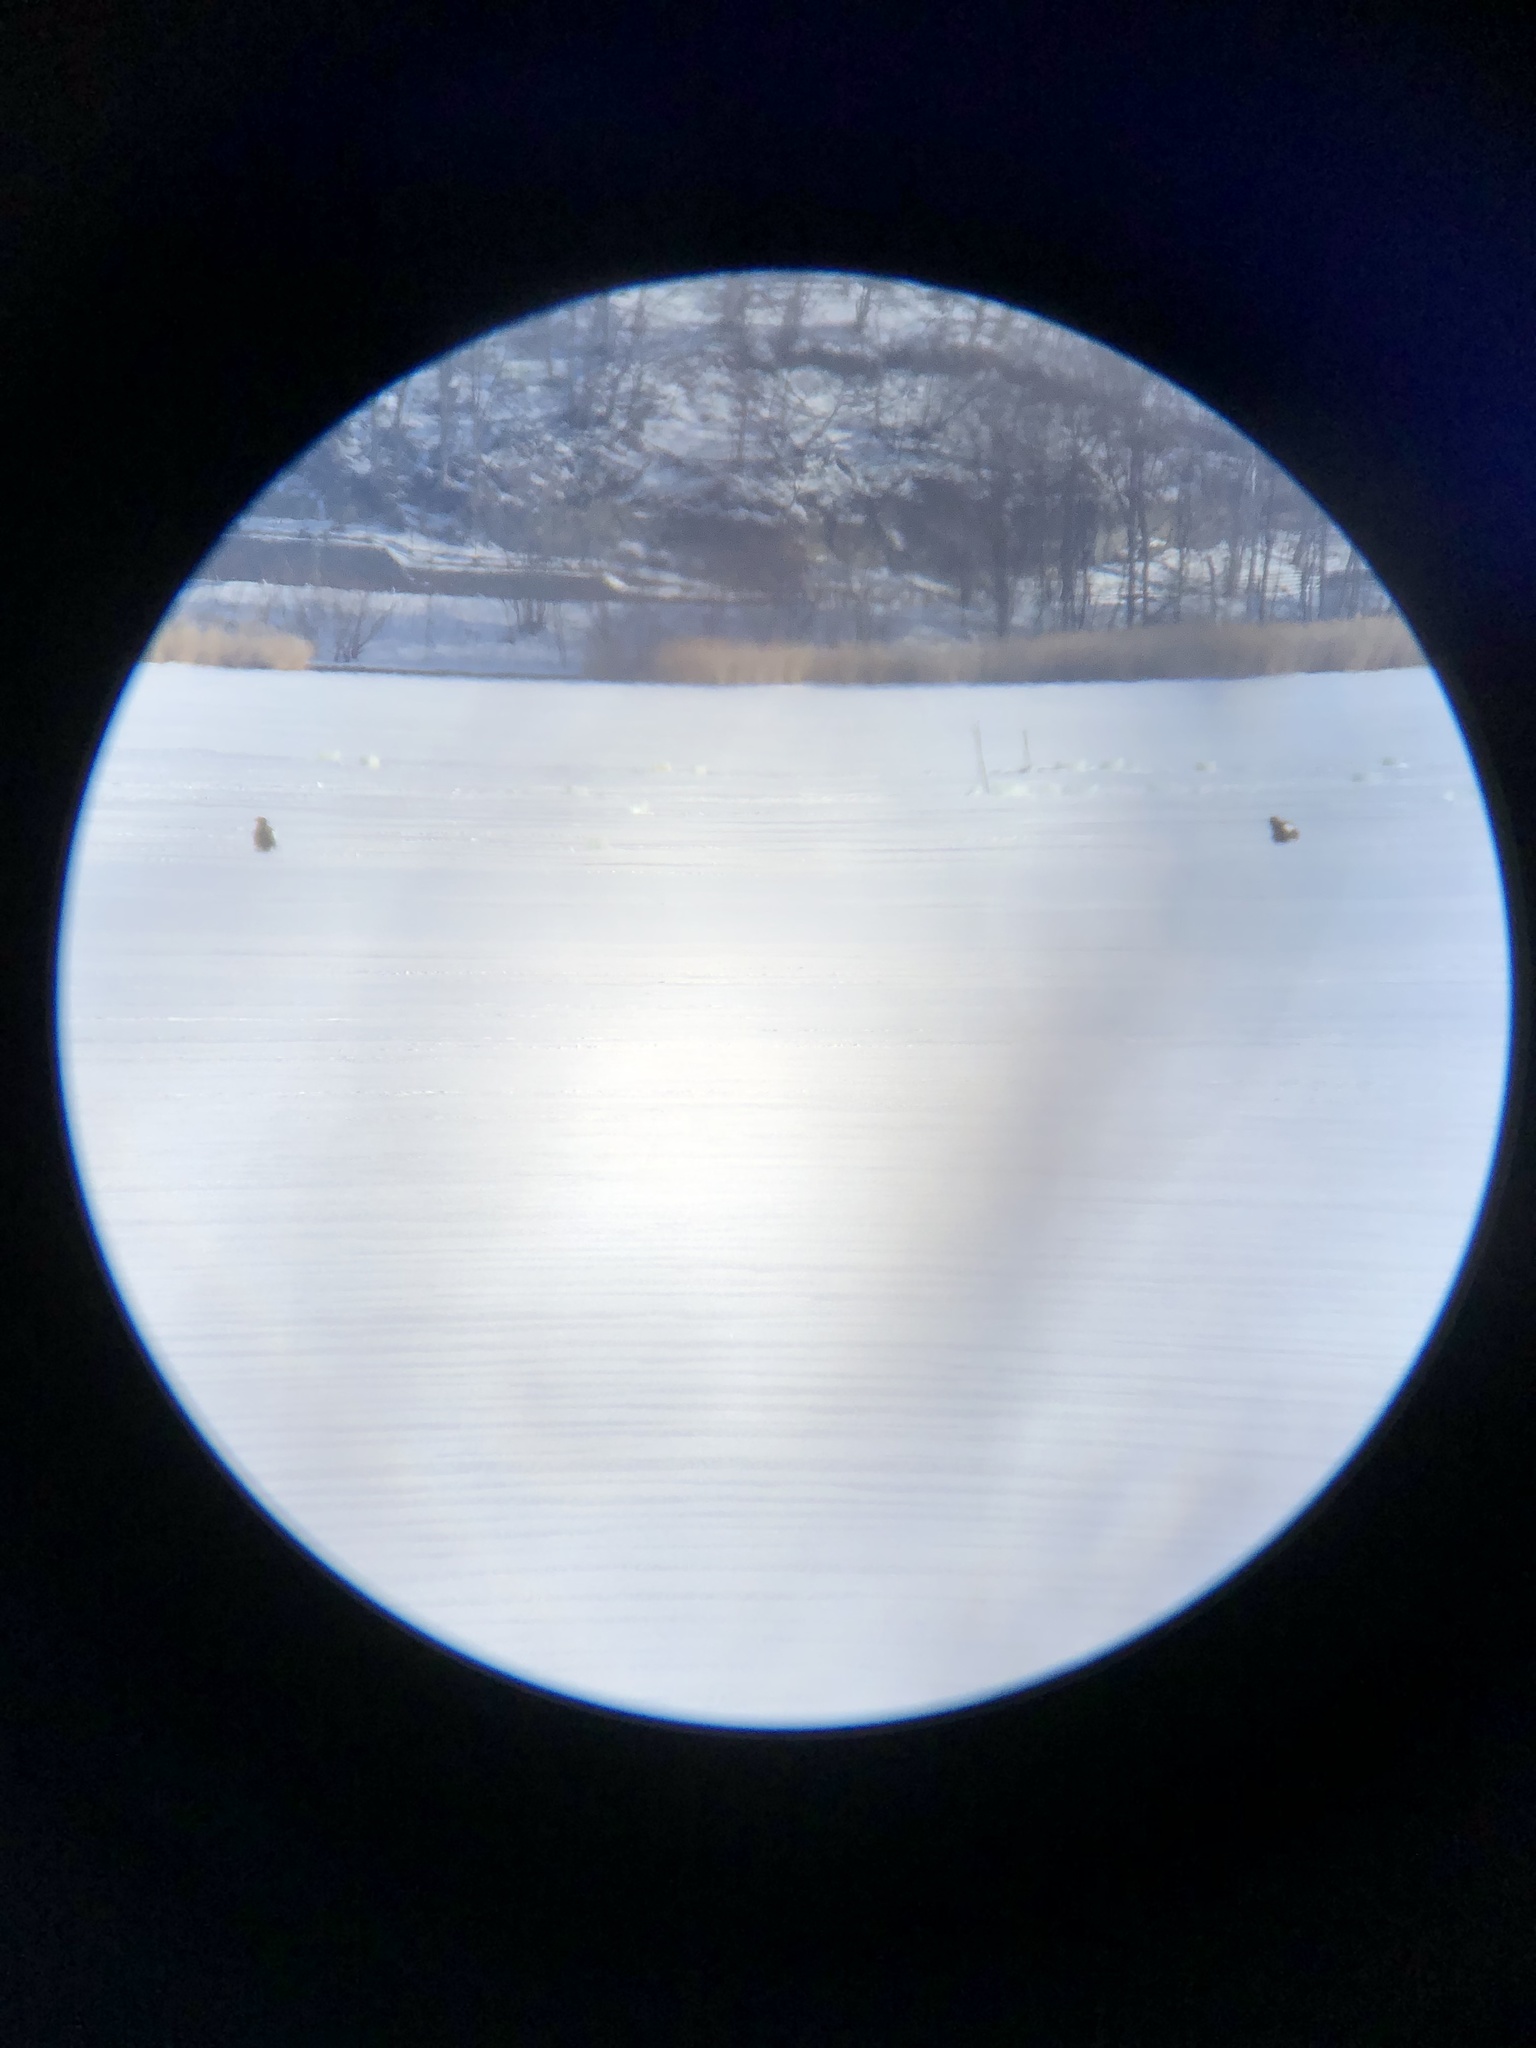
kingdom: Animalia
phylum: Chordata
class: Aves
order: Accipitriformes
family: Accipitridae
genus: Haliaeetus
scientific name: Haliaeetus pelagicus
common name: Steller's sea eagle
